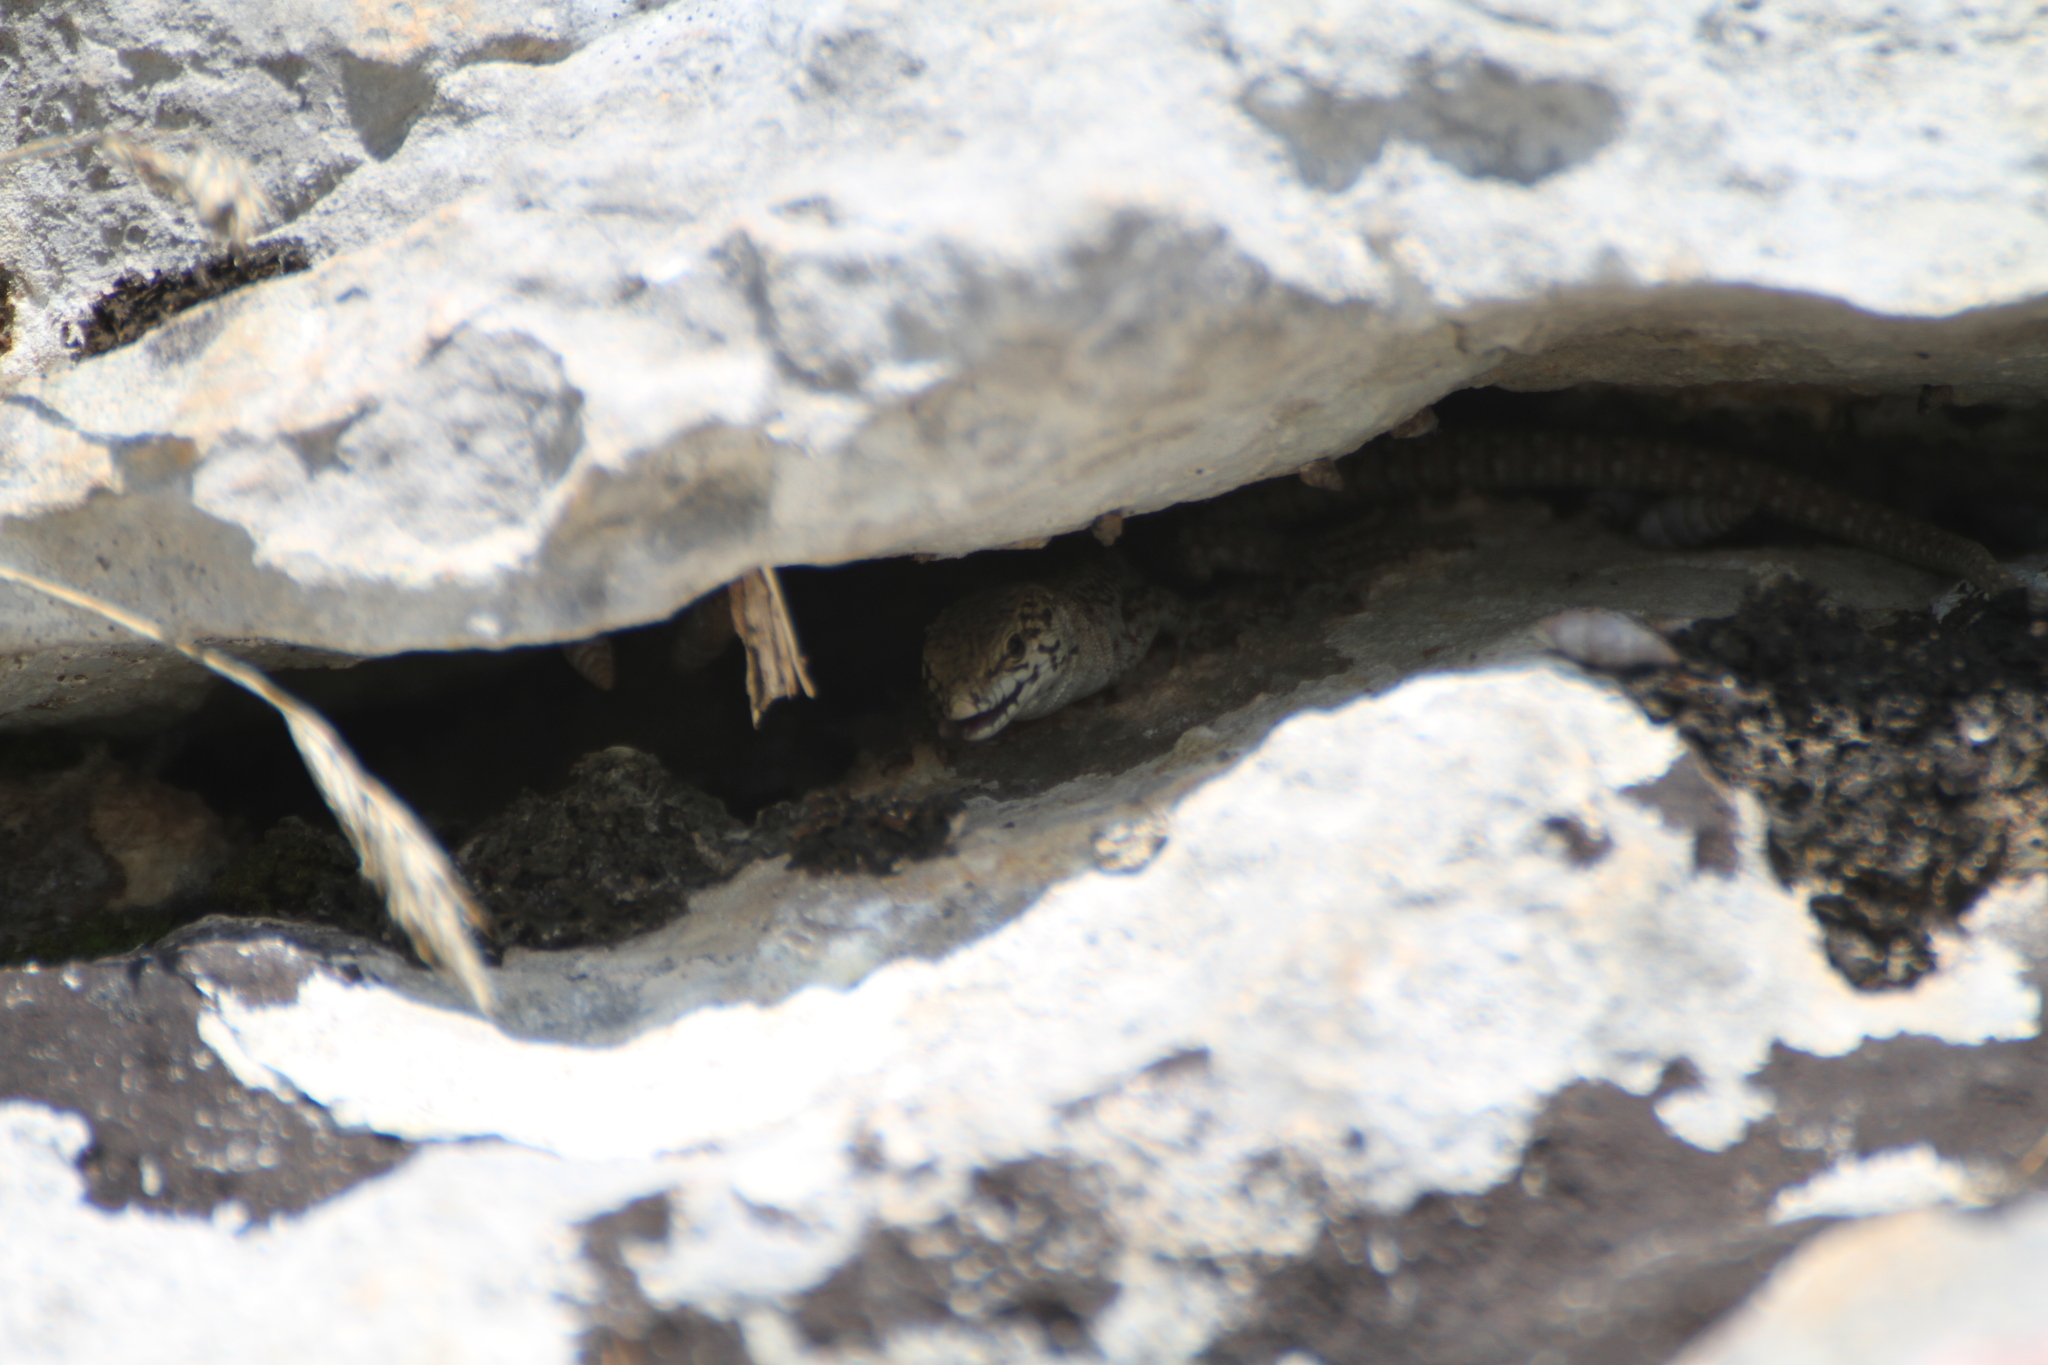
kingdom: Animalia
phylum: Chordata
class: Squamata
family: Lacertidae
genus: Podarcis
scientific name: Podarcis liolepis
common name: Catalonian wall lizard
